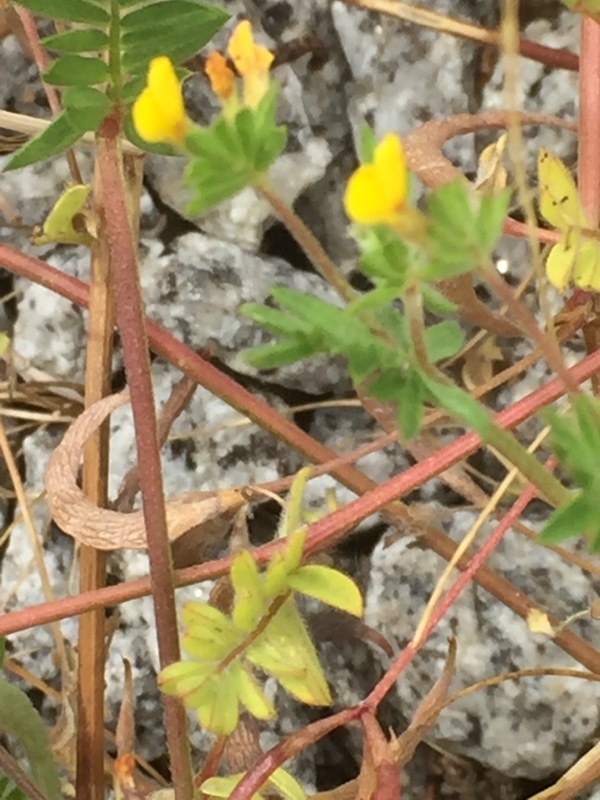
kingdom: Plantae
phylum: Tracheophyta
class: Magnoliopsida
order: Fabales
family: Fabaceae
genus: Ornithopus
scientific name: Ornithopus compressus
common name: Yellow serradella
